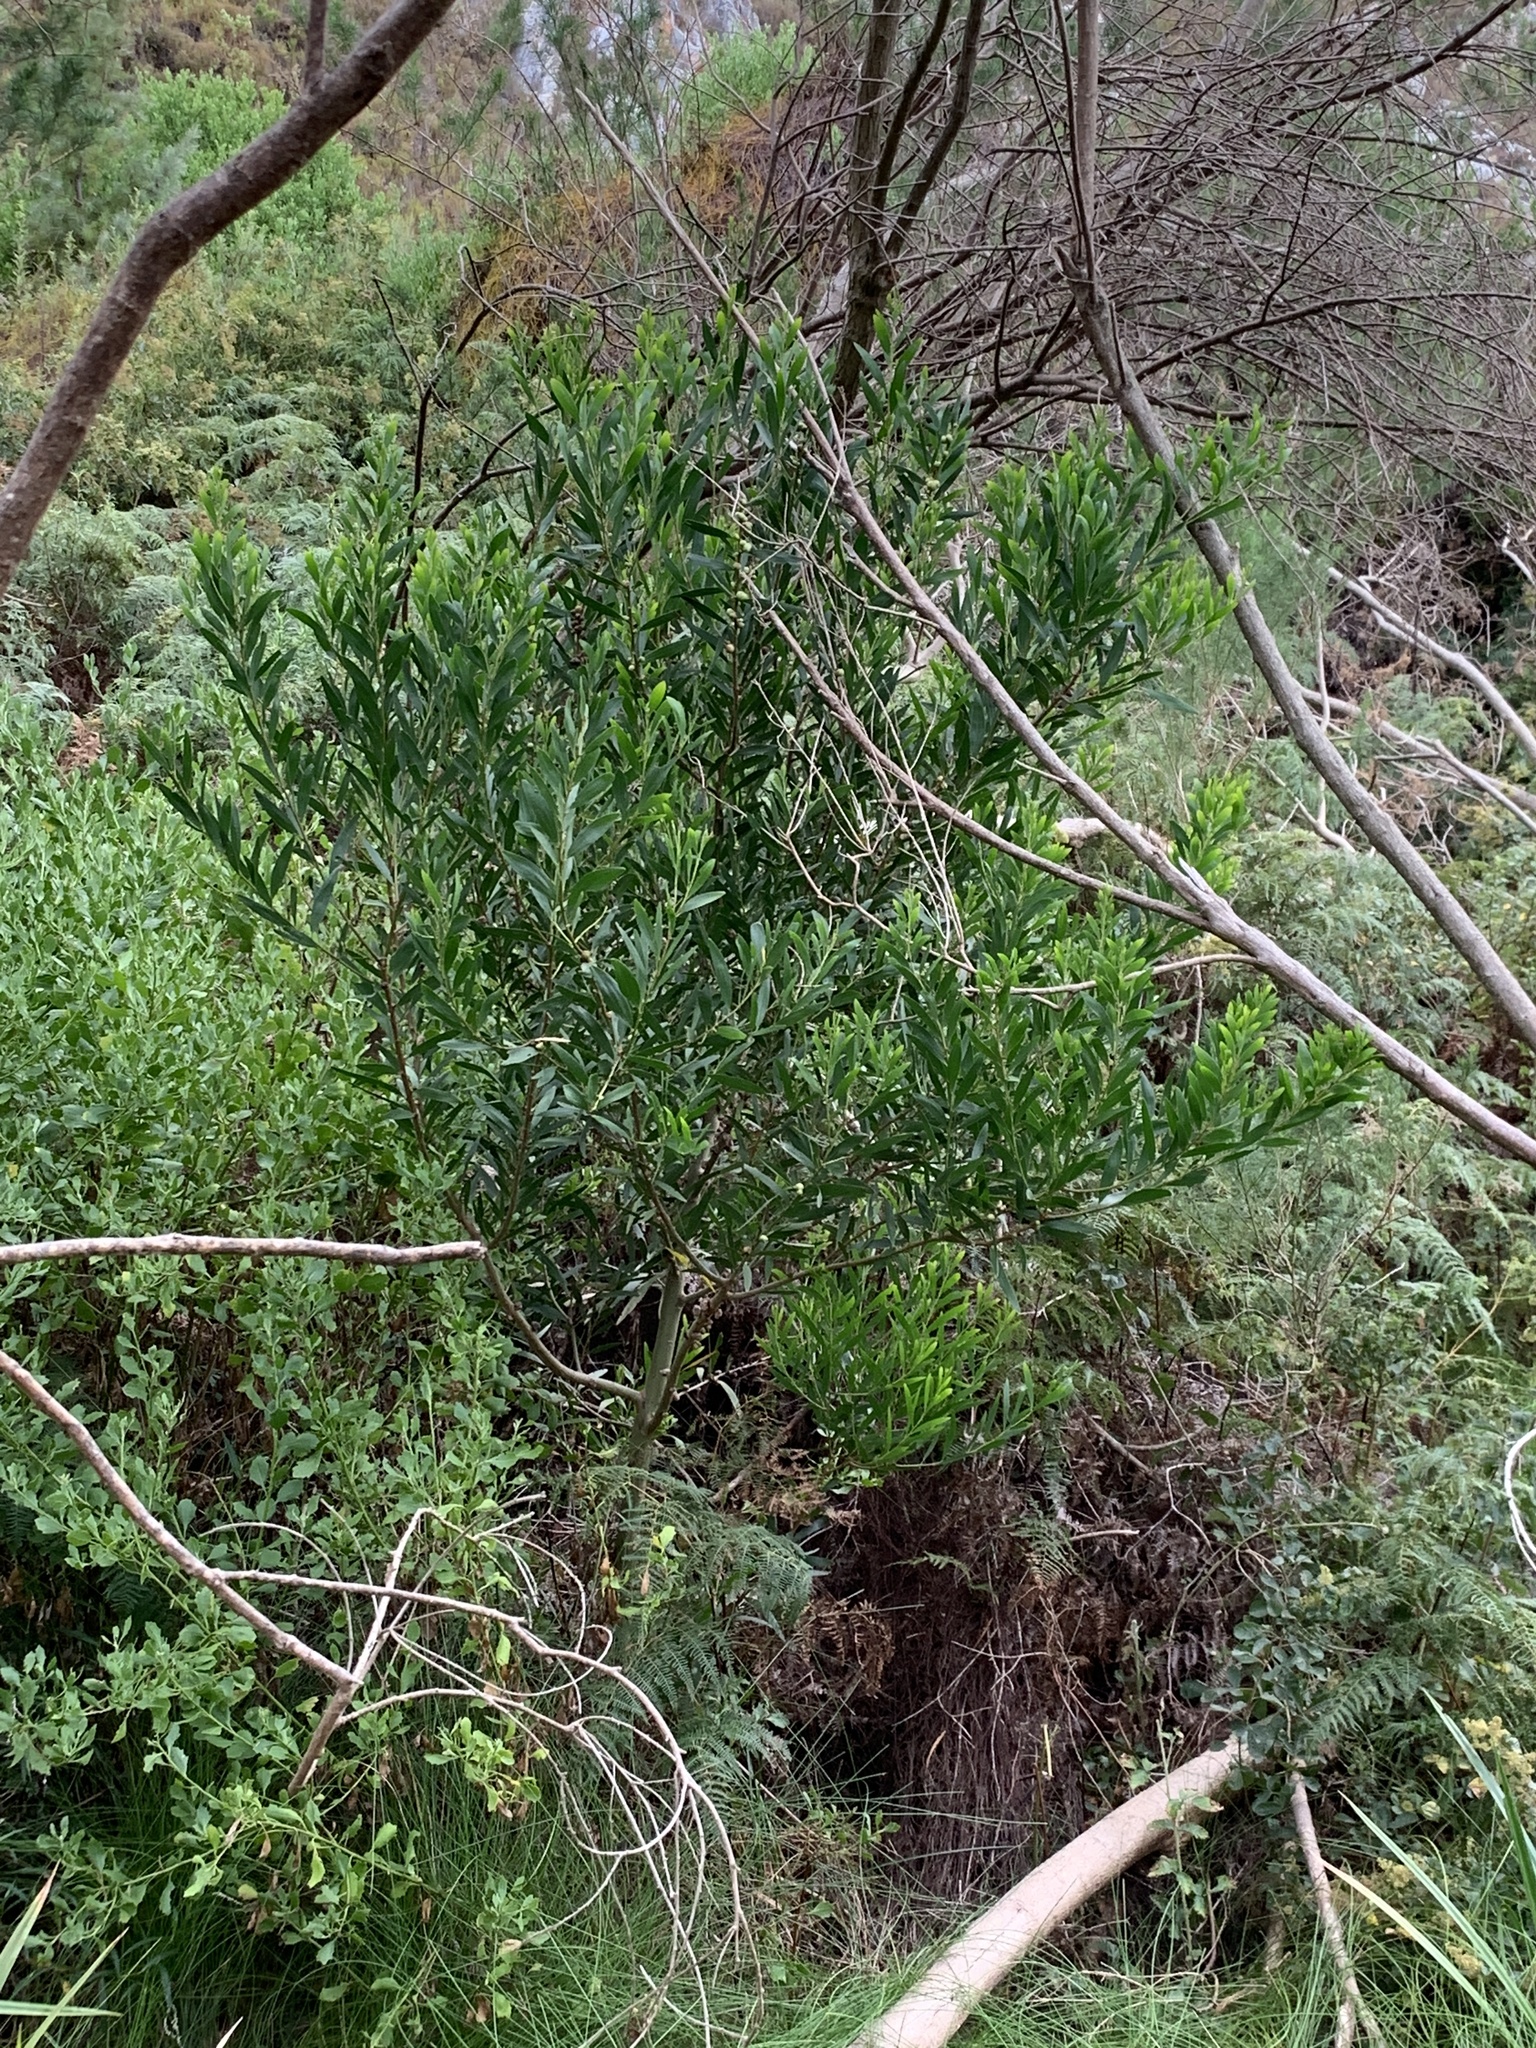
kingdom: Plantae
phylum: Tracheophyta
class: Magnoliopsida
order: Fabales
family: Fabaceae
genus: Acacia
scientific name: Acacia longifolia
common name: Sydney golden wattle
